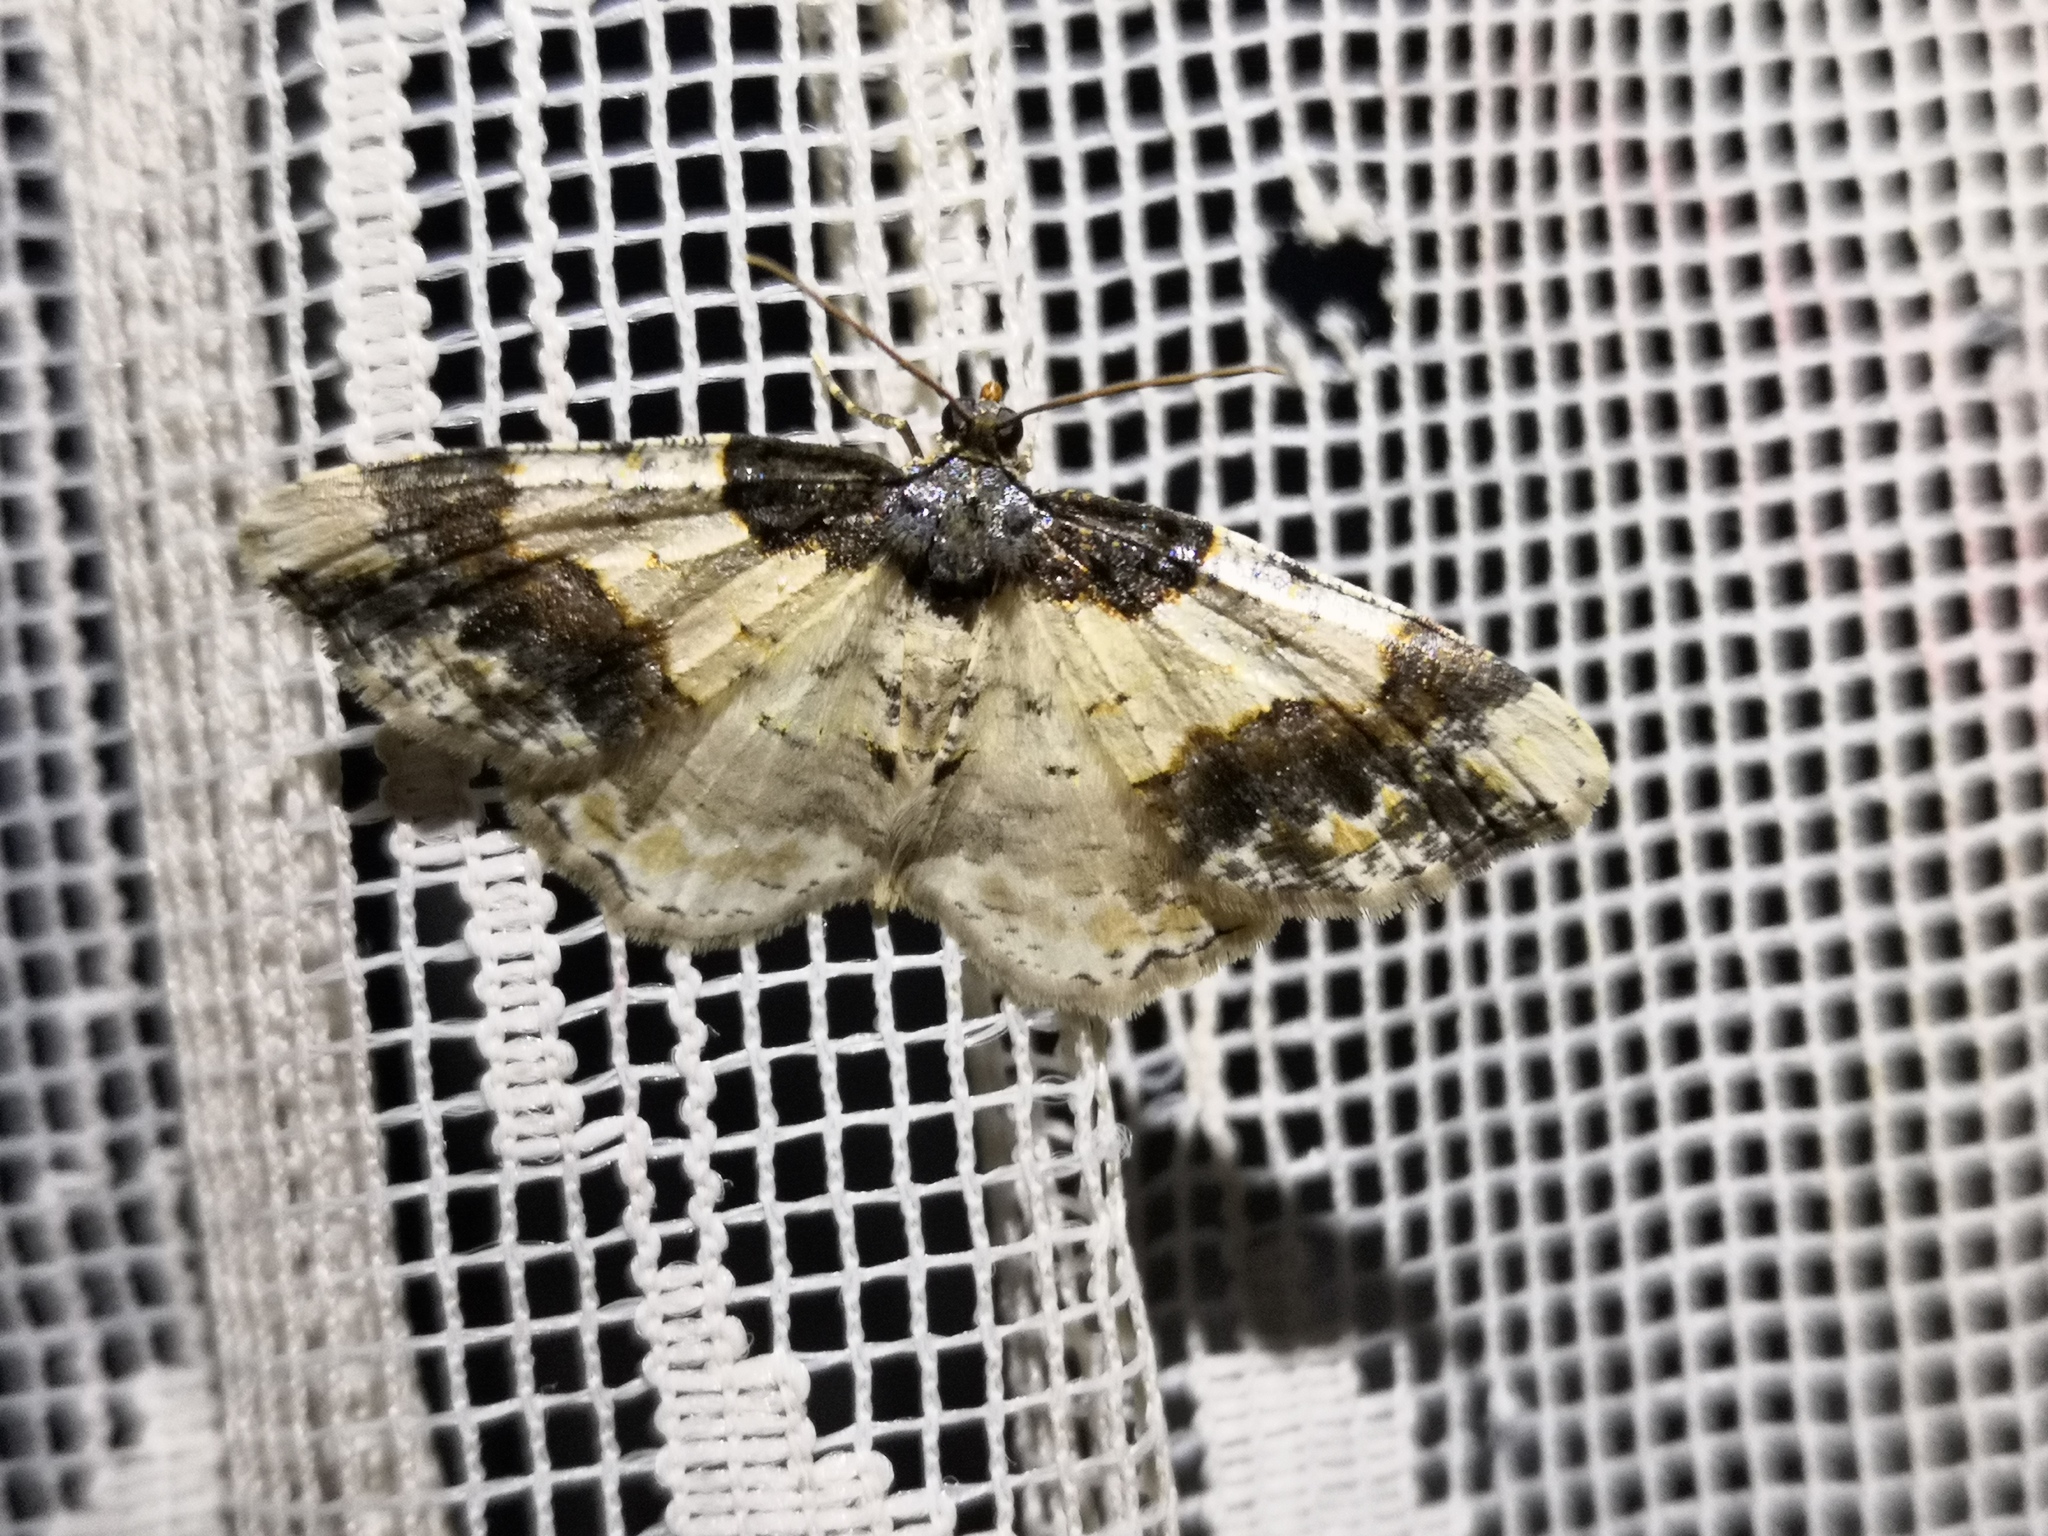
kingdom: Animalia
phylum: Arthropoda
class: Insecta
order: Lepidoptera
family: Geometridae
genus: Ligdia
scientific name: Ligdia adustata
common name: Scorched carpet
